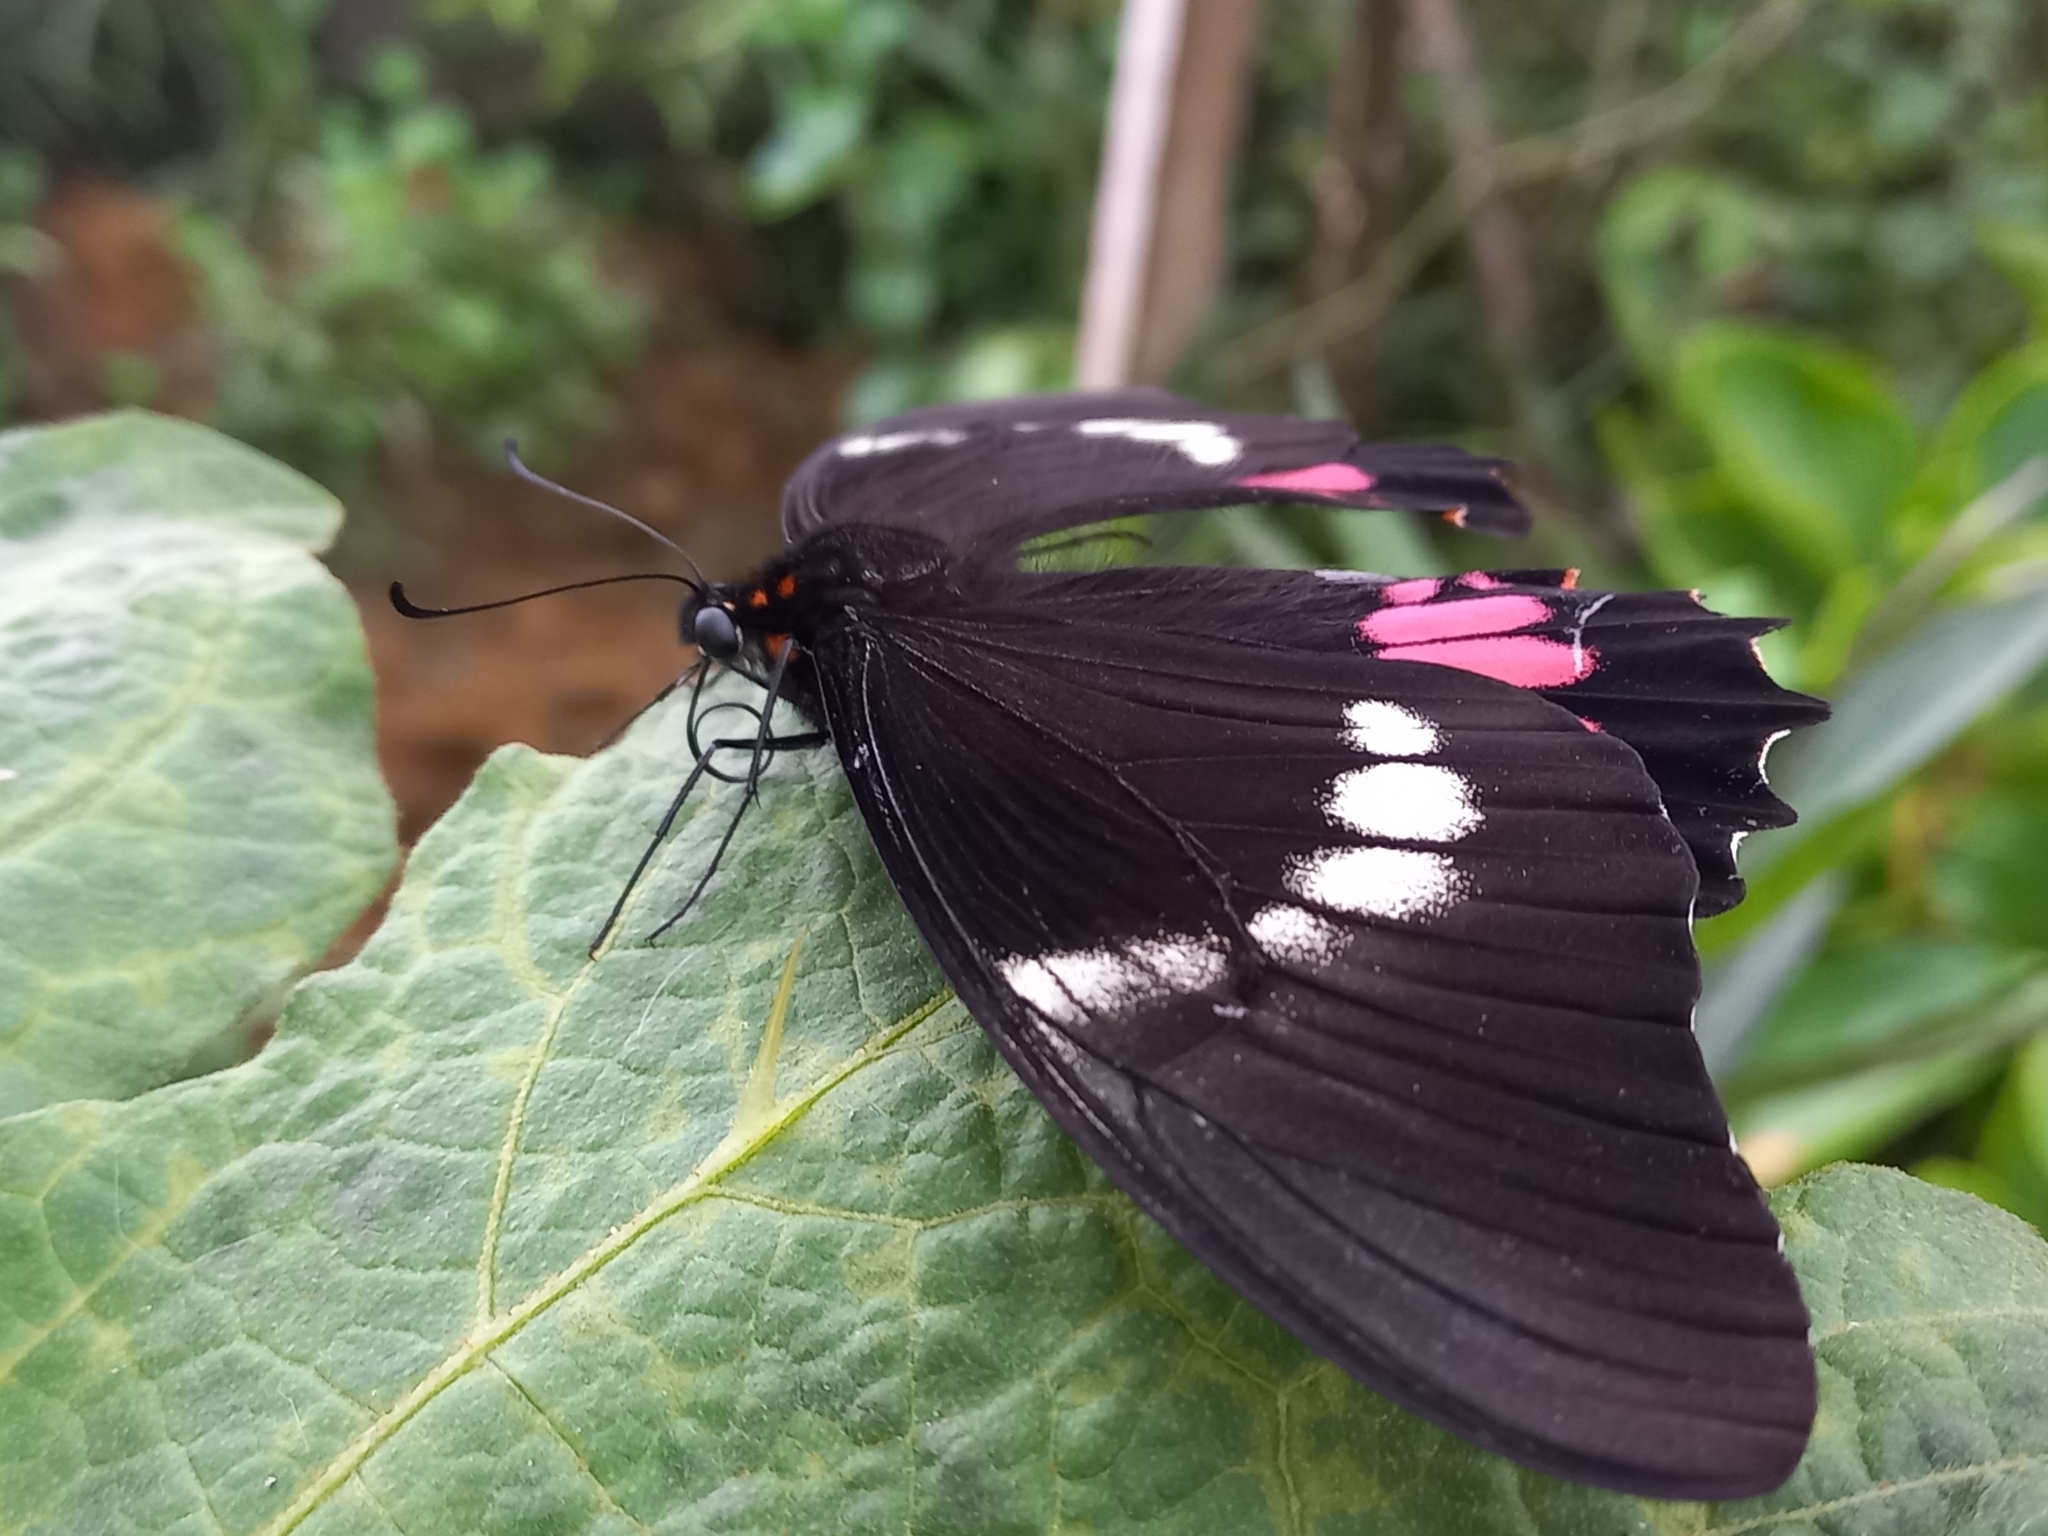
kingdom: Animalia
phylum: Arthropoda
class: Insecta
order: Lepidoptera
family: Papilionidae
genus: Papilio
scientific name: Papilio anchisiades
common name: Idaes swallowtail
